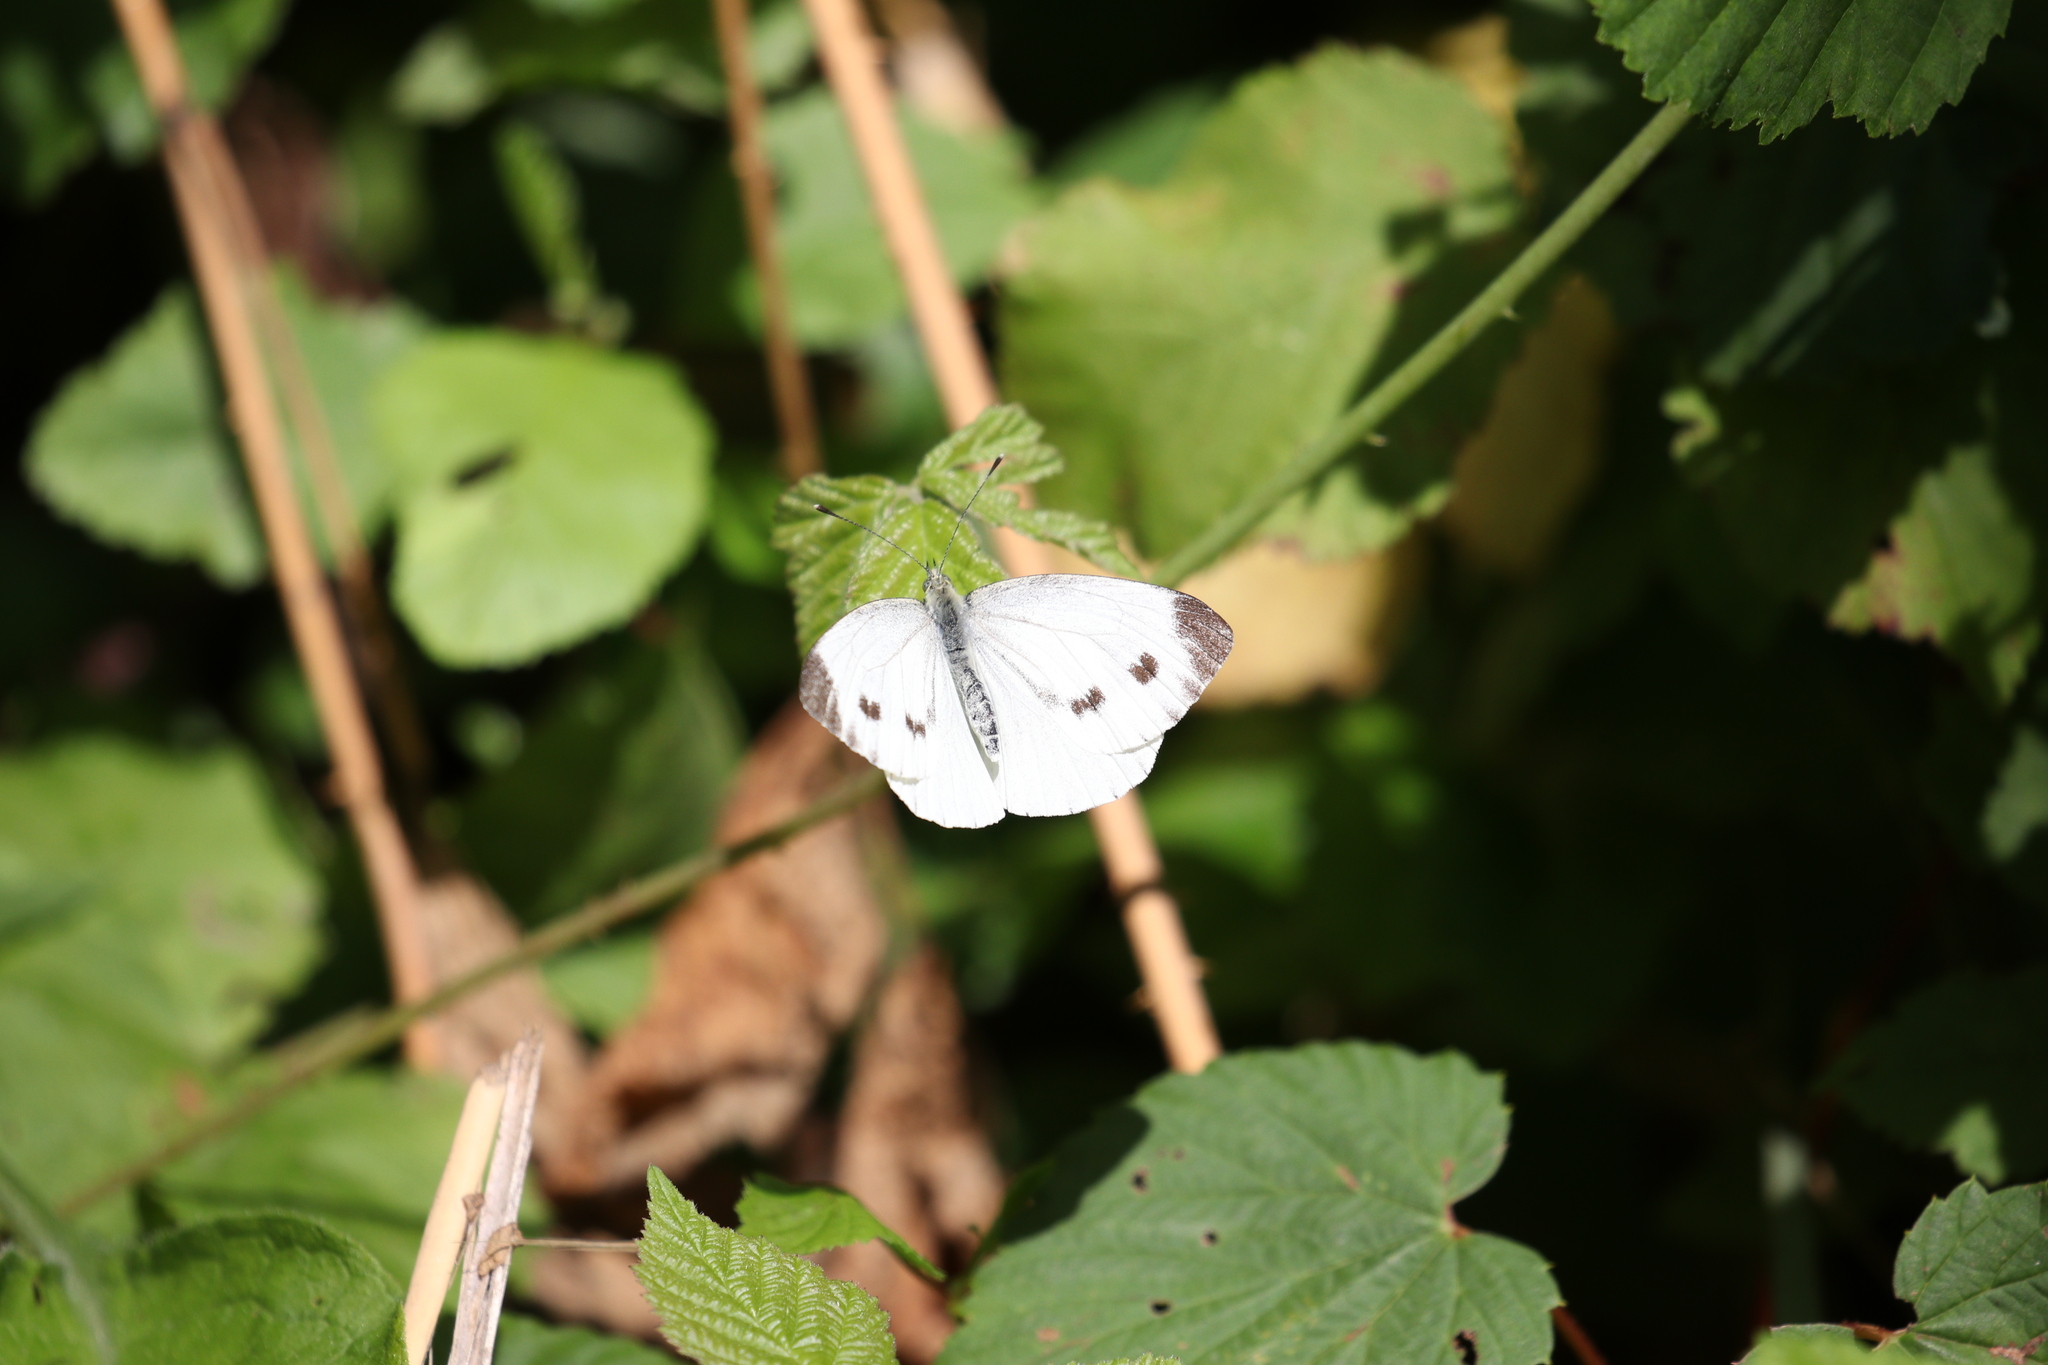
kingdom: Animalia
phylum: Arthropoda
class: Insecta
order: Lepidoptera
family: Pieridae
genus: Pieris
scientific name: Pieris napi
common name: Green-veined white
